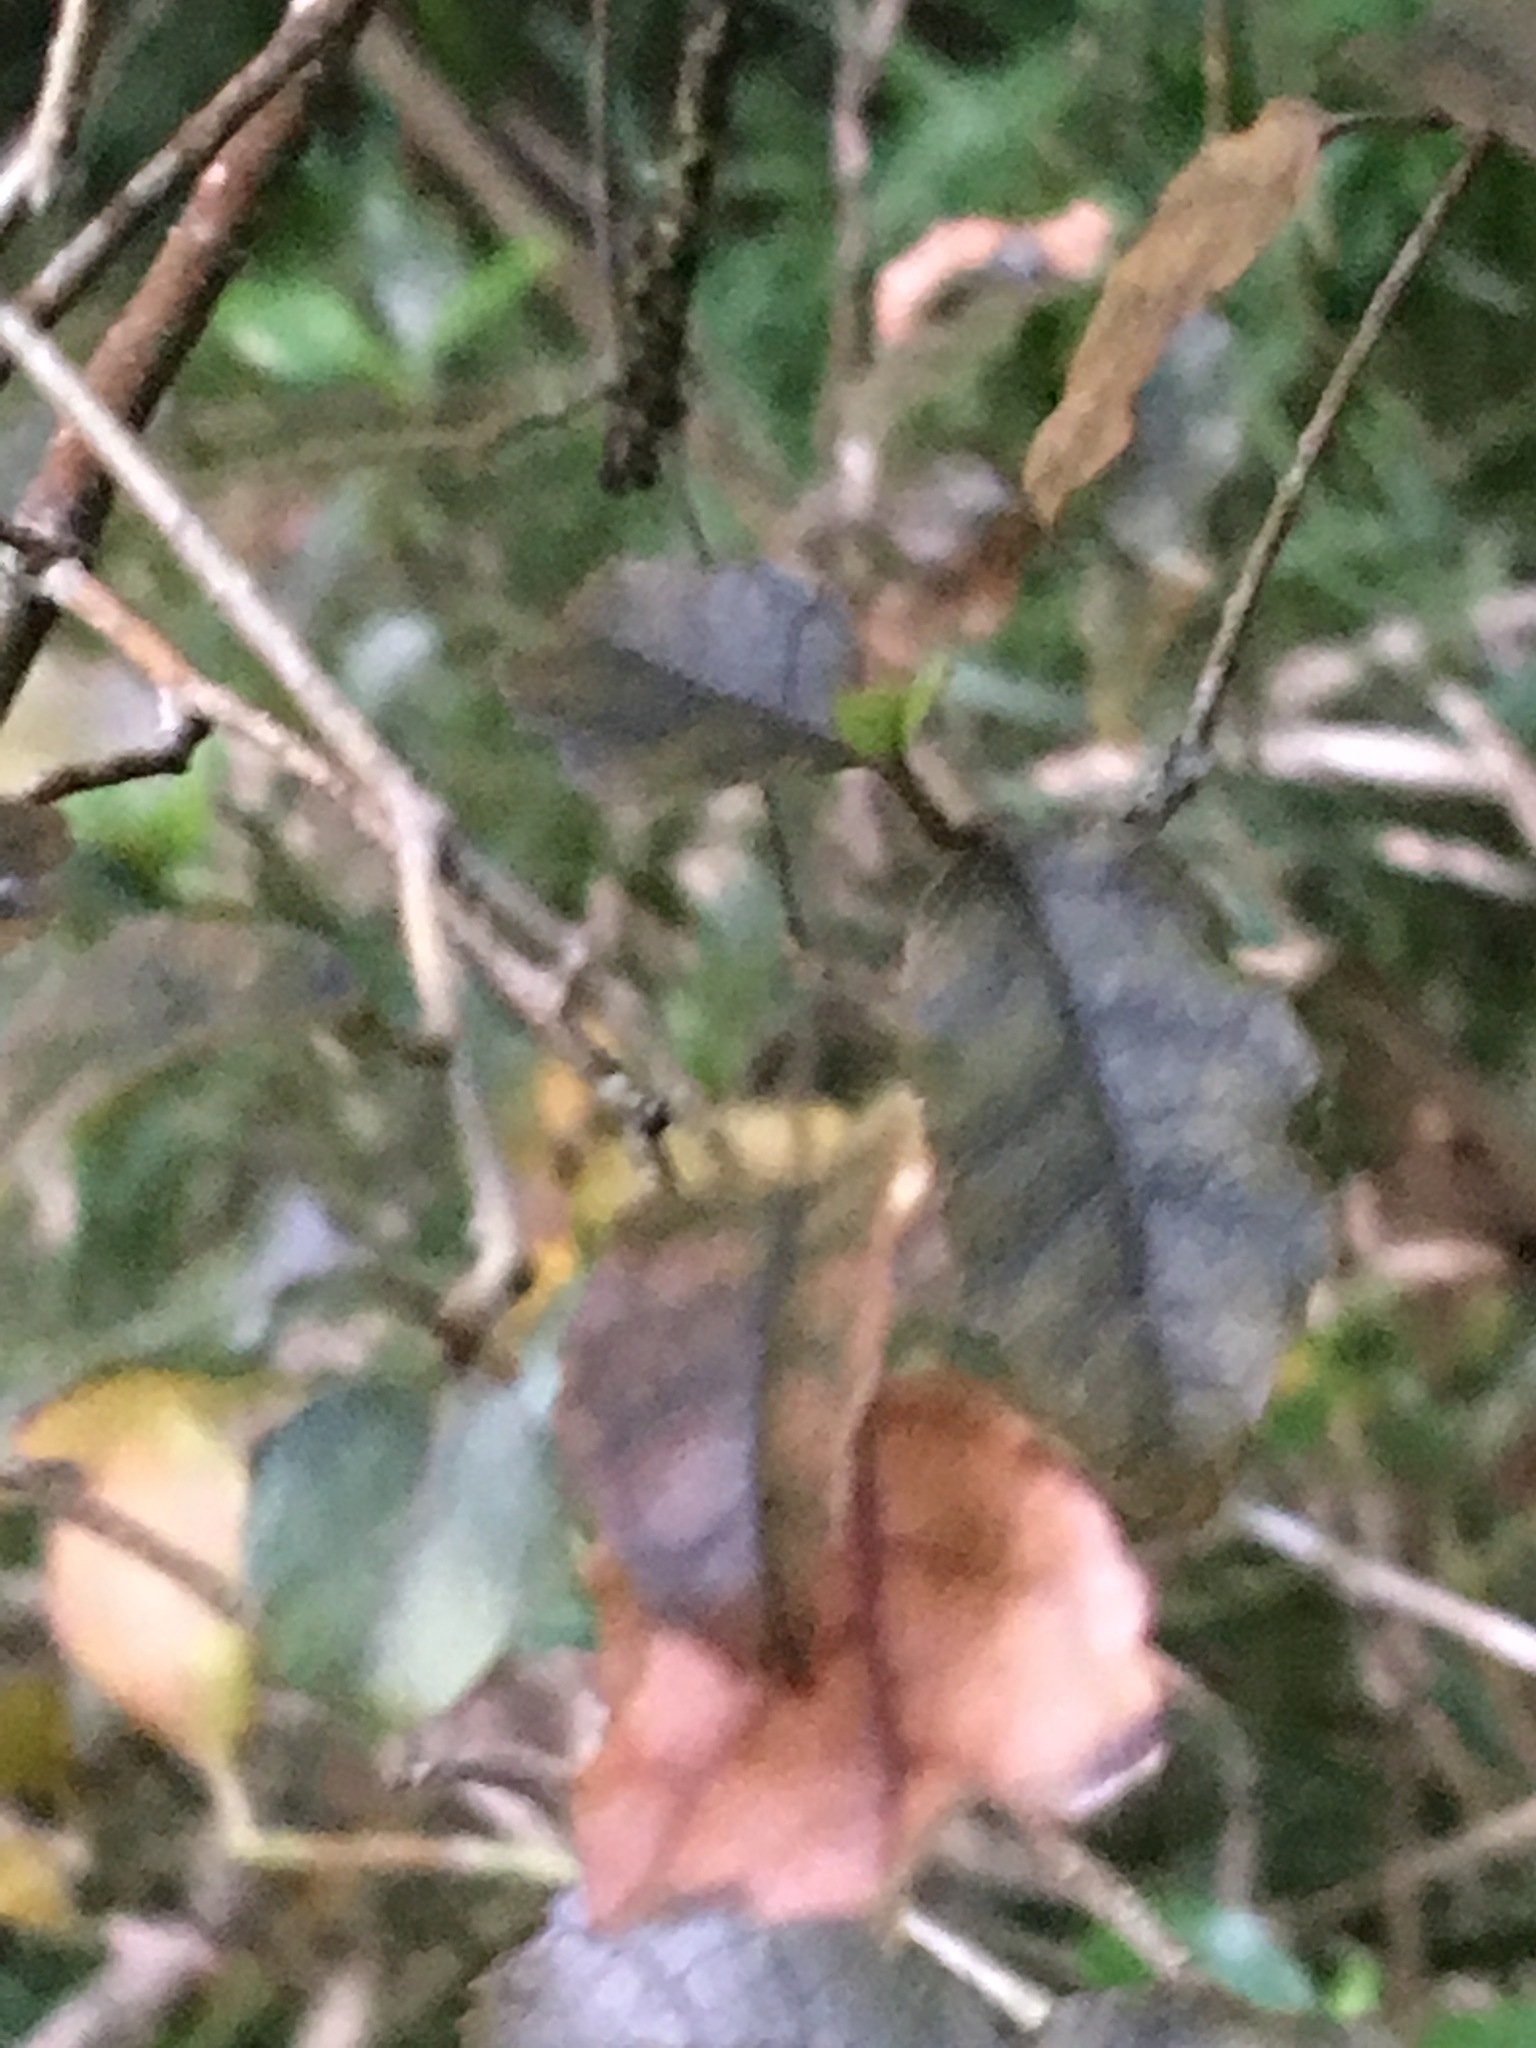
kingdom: Plantae
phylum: Tracheophyta
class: Magnoliopsida
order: Asterales
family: Rousseaceae
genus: Carpodetus
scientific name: Carpodetus serratus
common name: White mapau
